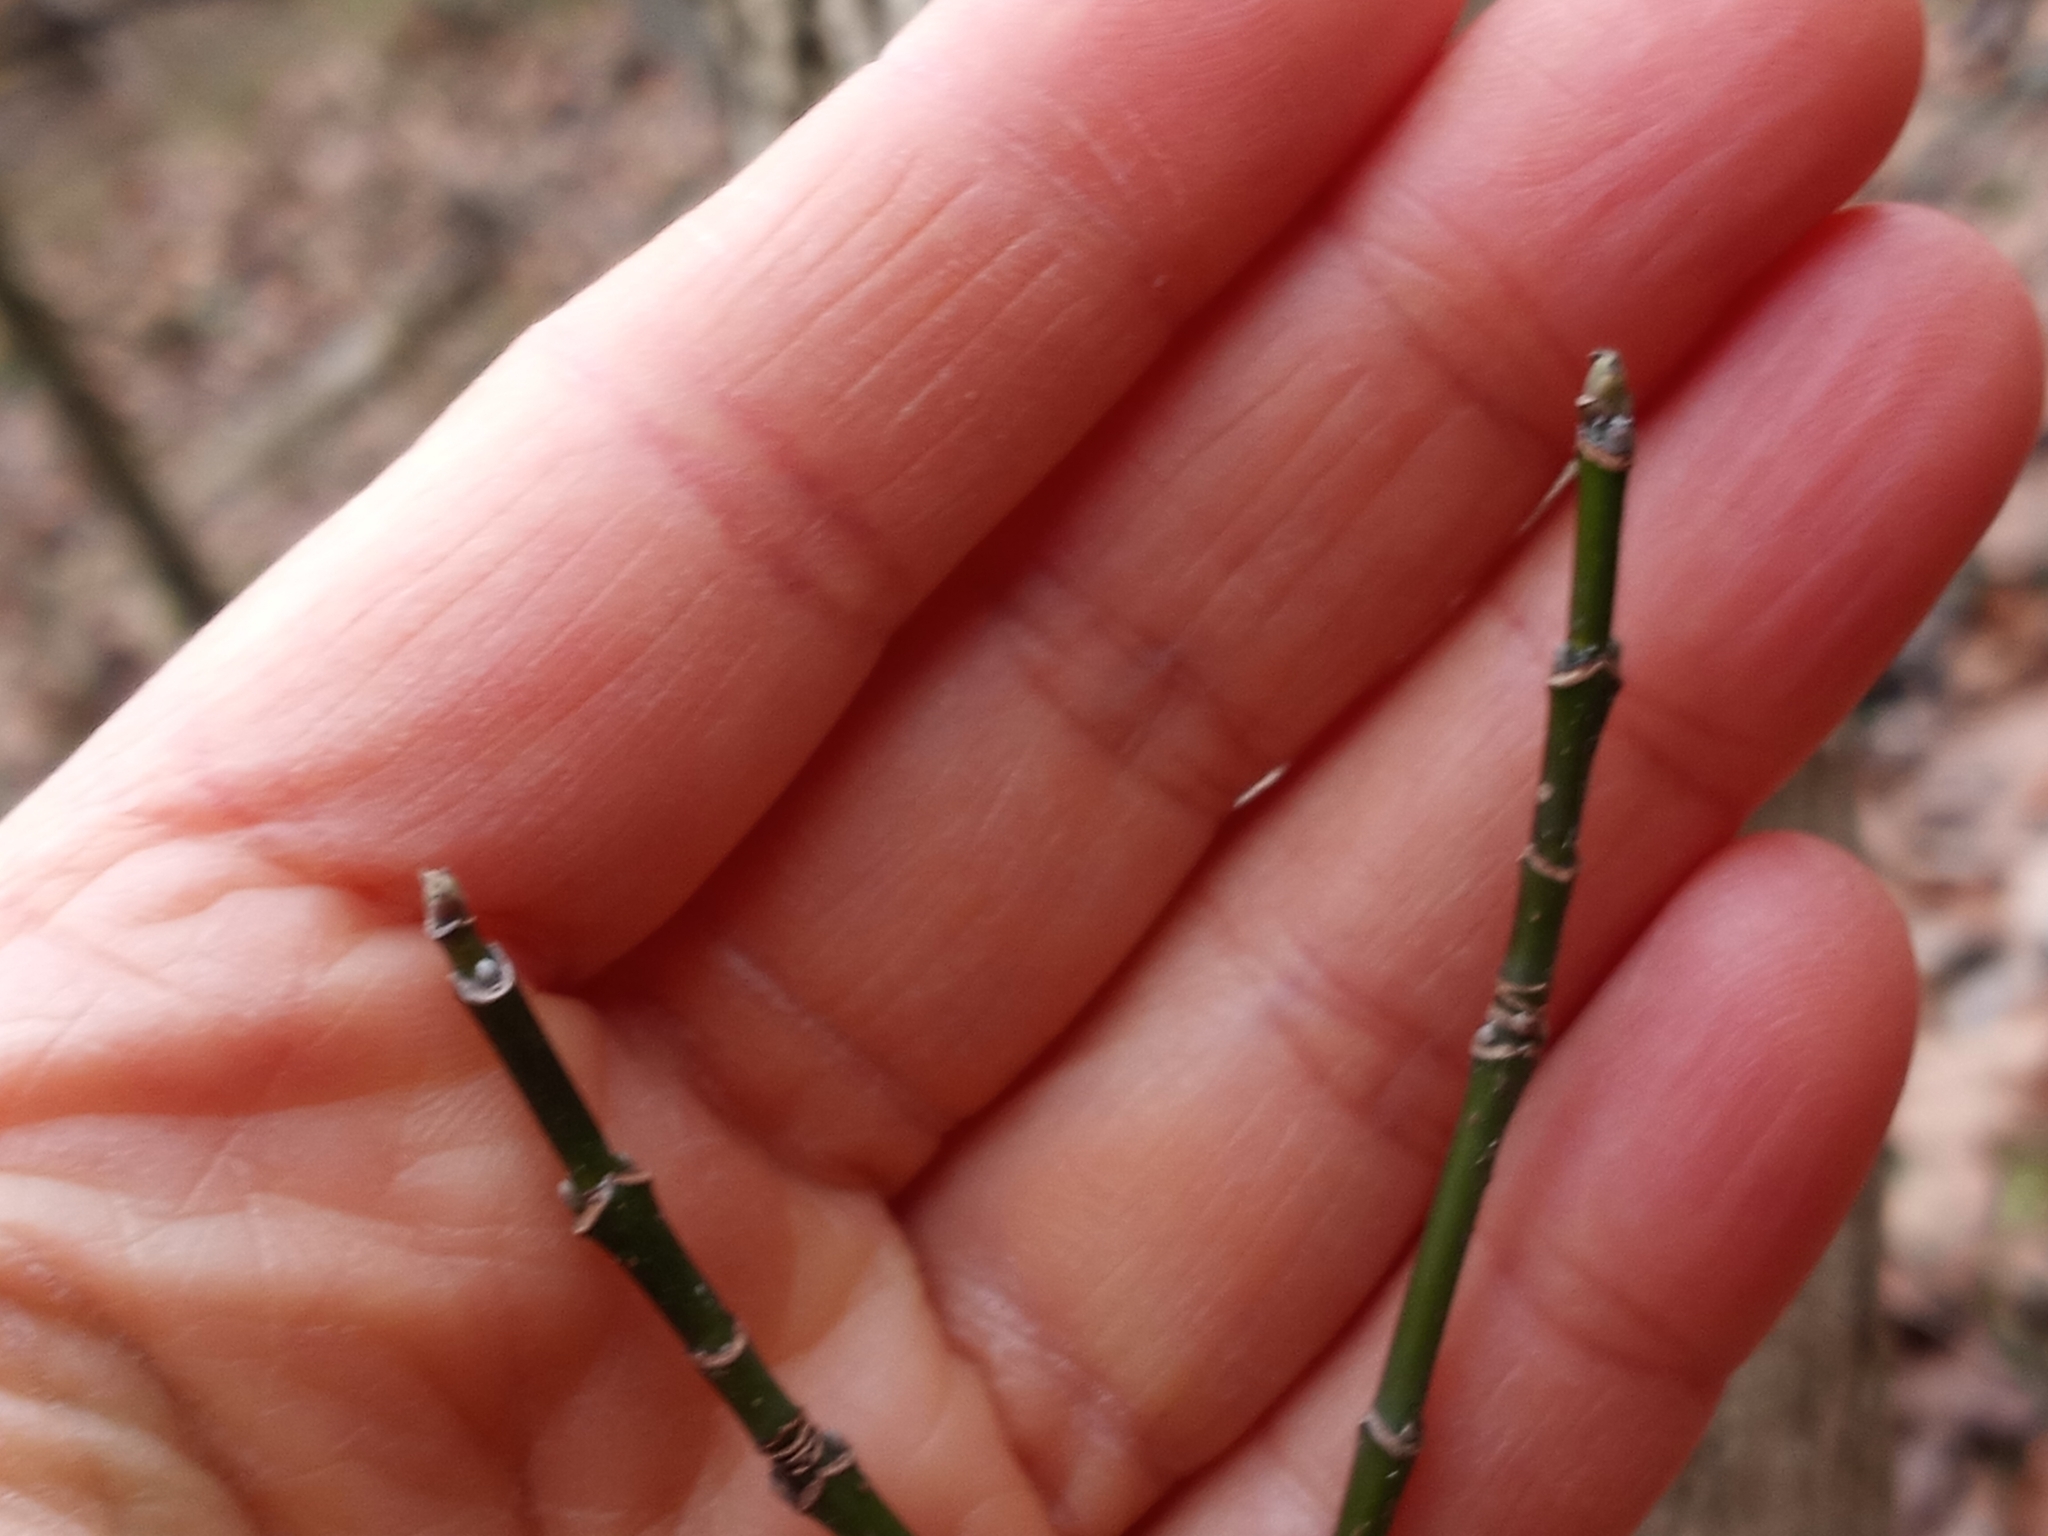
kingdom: Plantae
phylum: Tracheophyta
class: Magnoliopsida
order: Sapindales
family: Sapindaceae
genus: Acer
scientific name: Acer negundo
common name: Ashleaf maple
